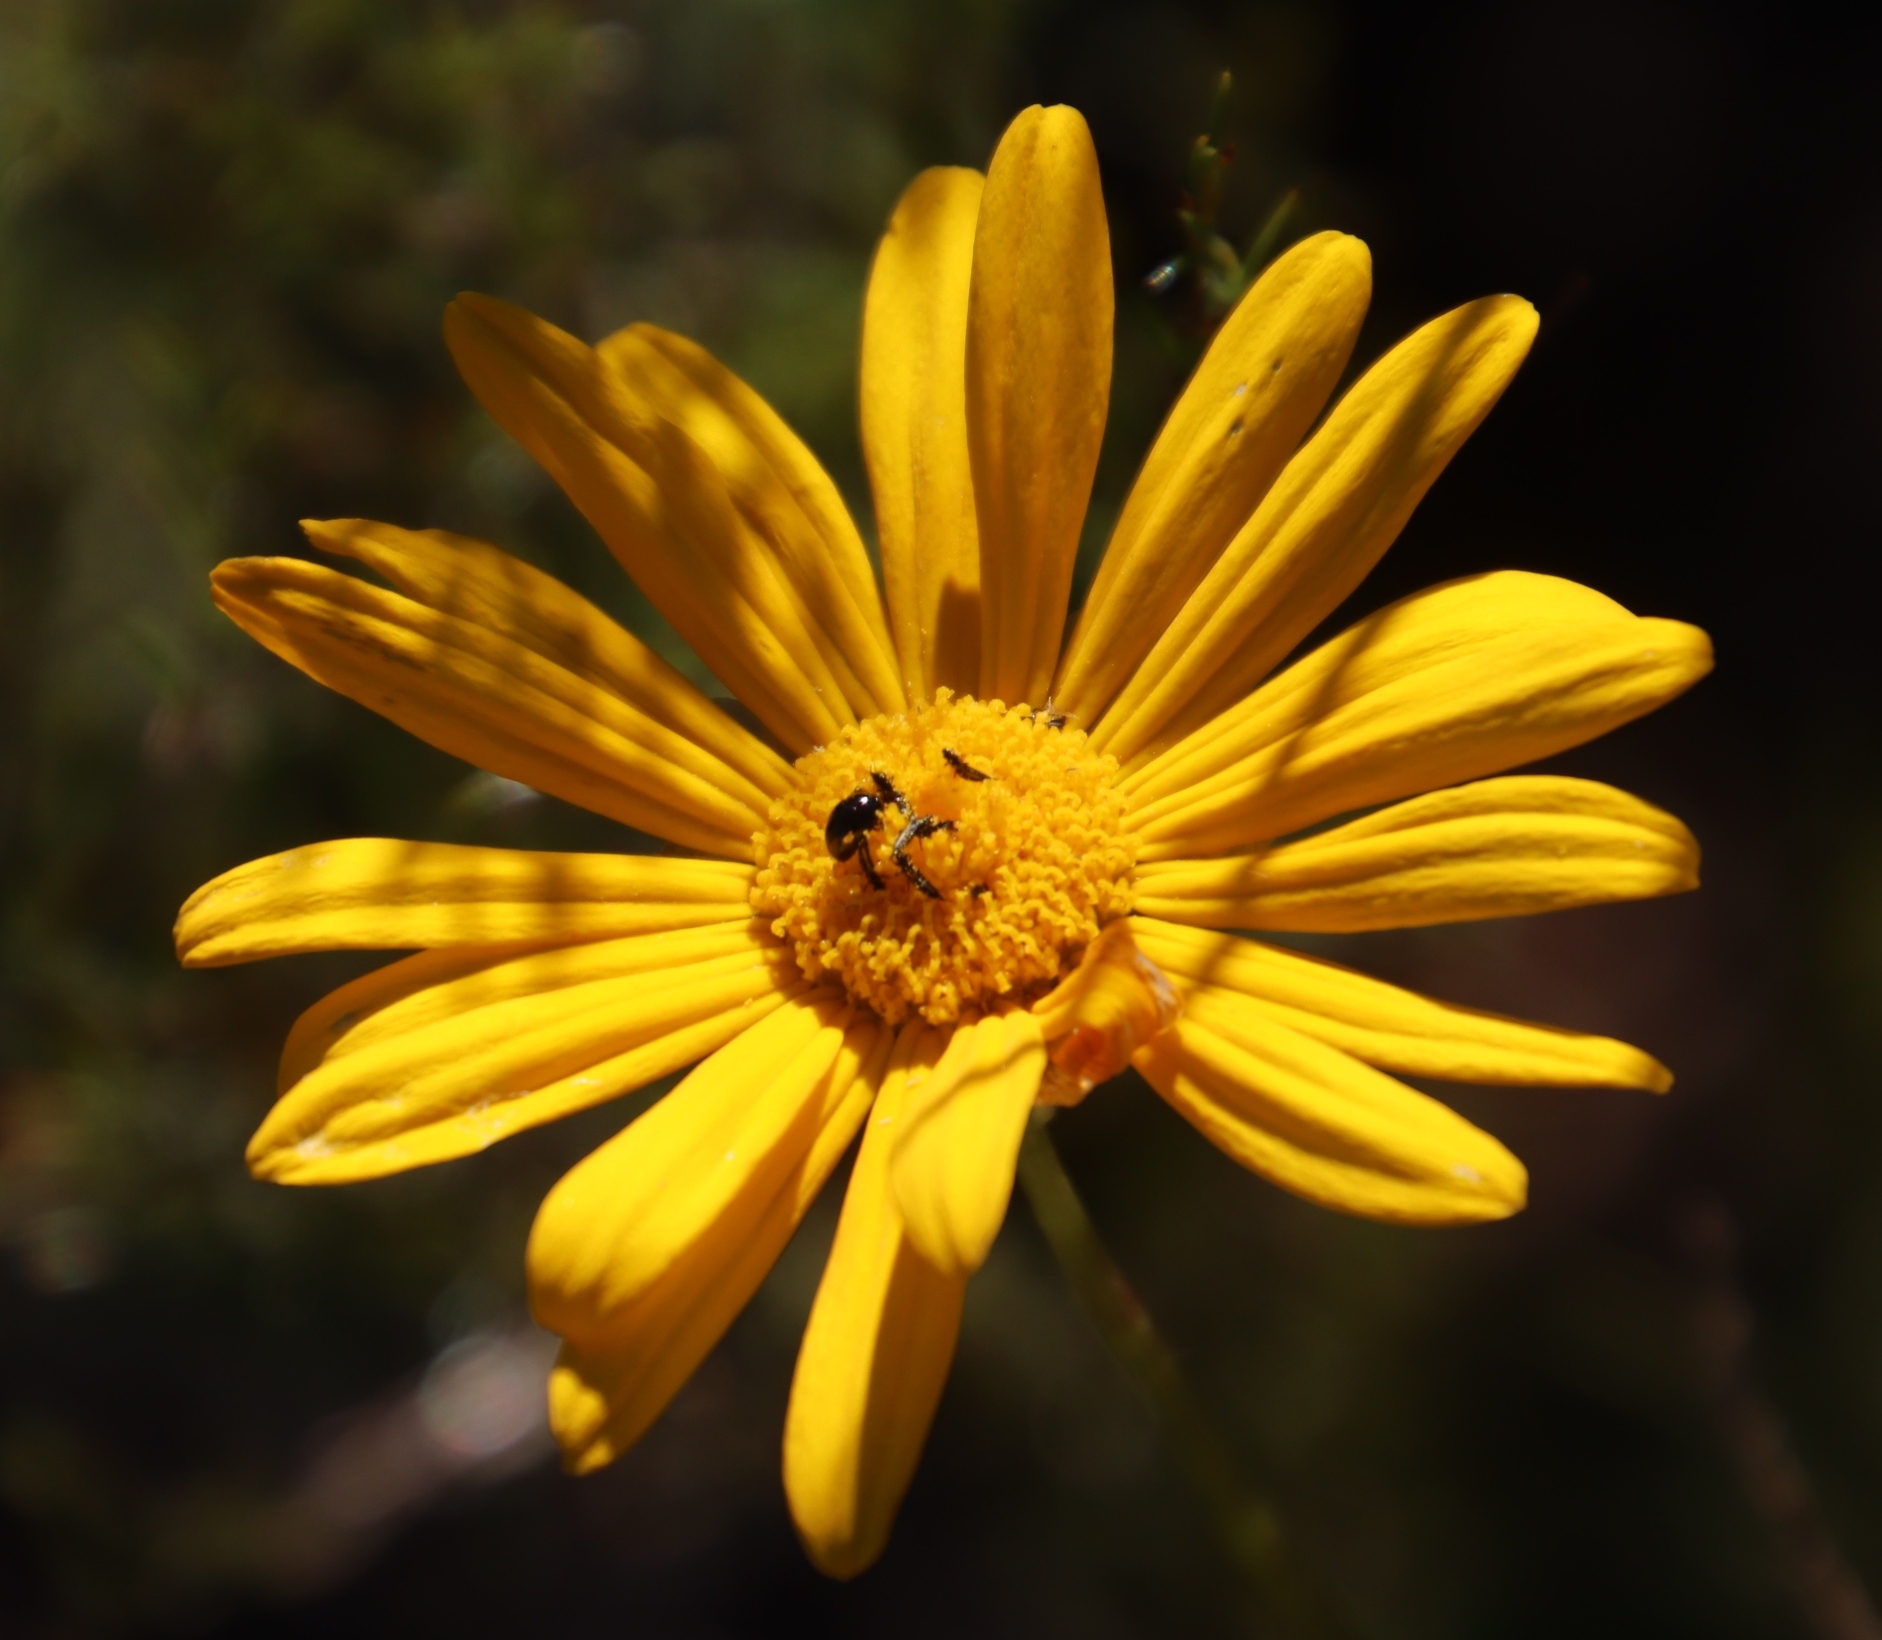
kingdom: Plantae
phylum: Tracheophyta
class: Magnoliopsida
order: Asterales
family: Asteraceae
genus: Euryops
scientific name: Euryops abrotanifolius
